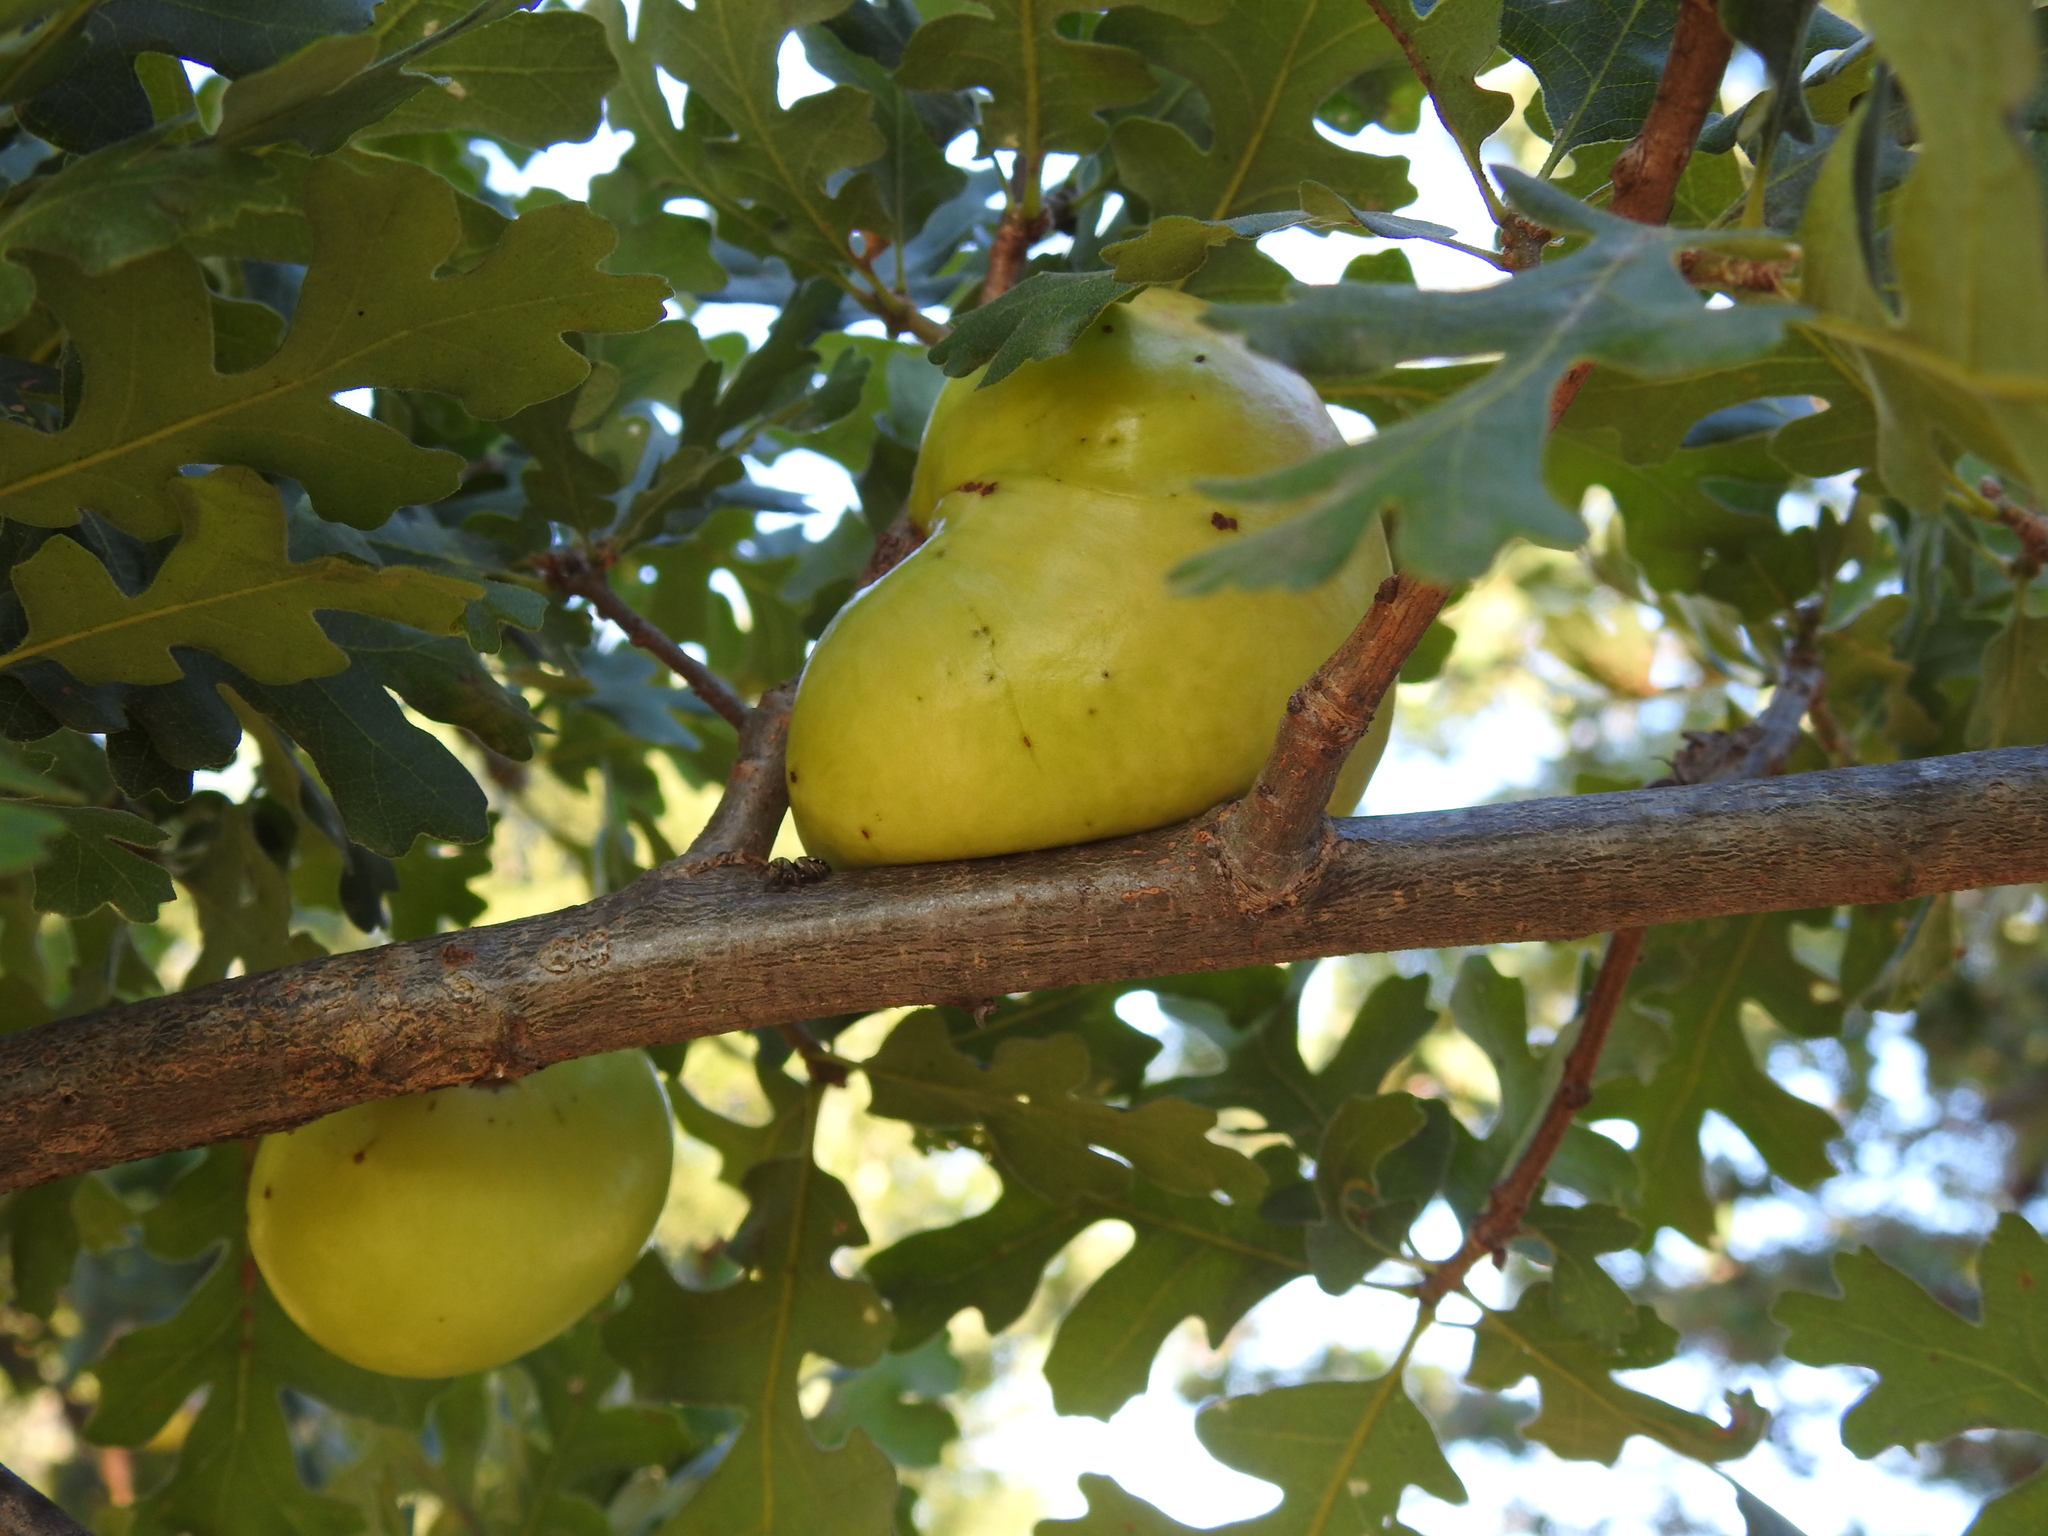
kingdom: Animalia
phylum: Arthropoda
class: Insecta
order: Hymenoptera
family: Cynipidae
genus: Andricus
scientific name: Andricus quercuscalifornicus
